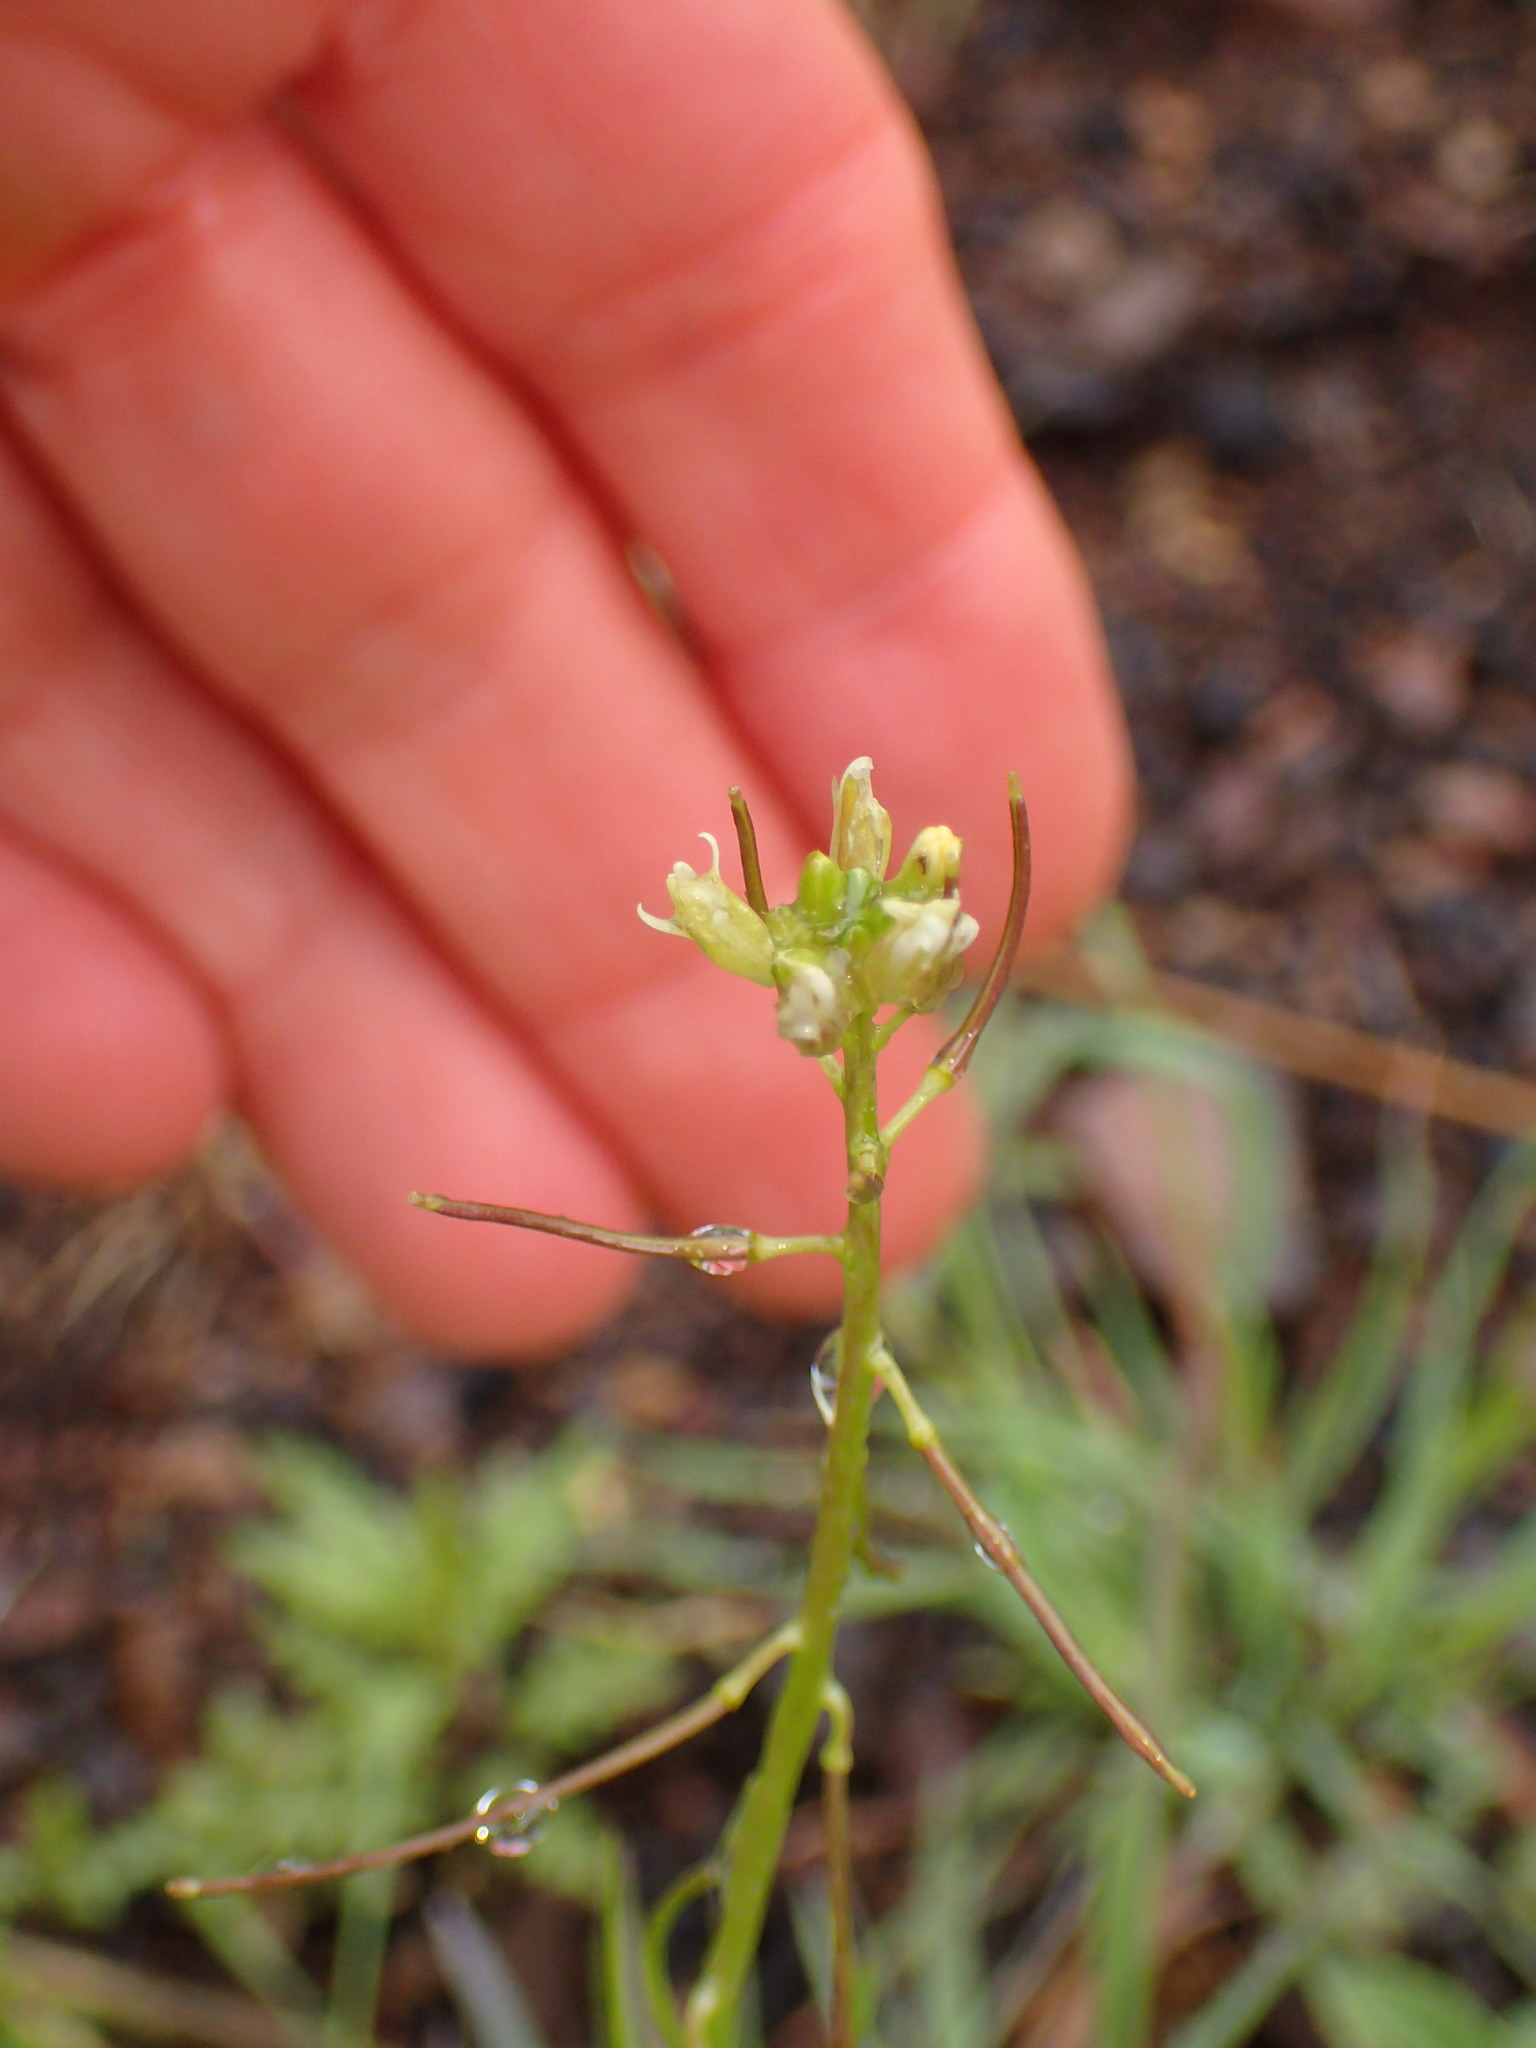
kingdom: Plantae
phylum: Tracheophyta
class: Magnoliopsida
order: Brassicales
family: Brassicaceae
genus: Streptanthus
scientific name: Streptanthus lasiophyllus
